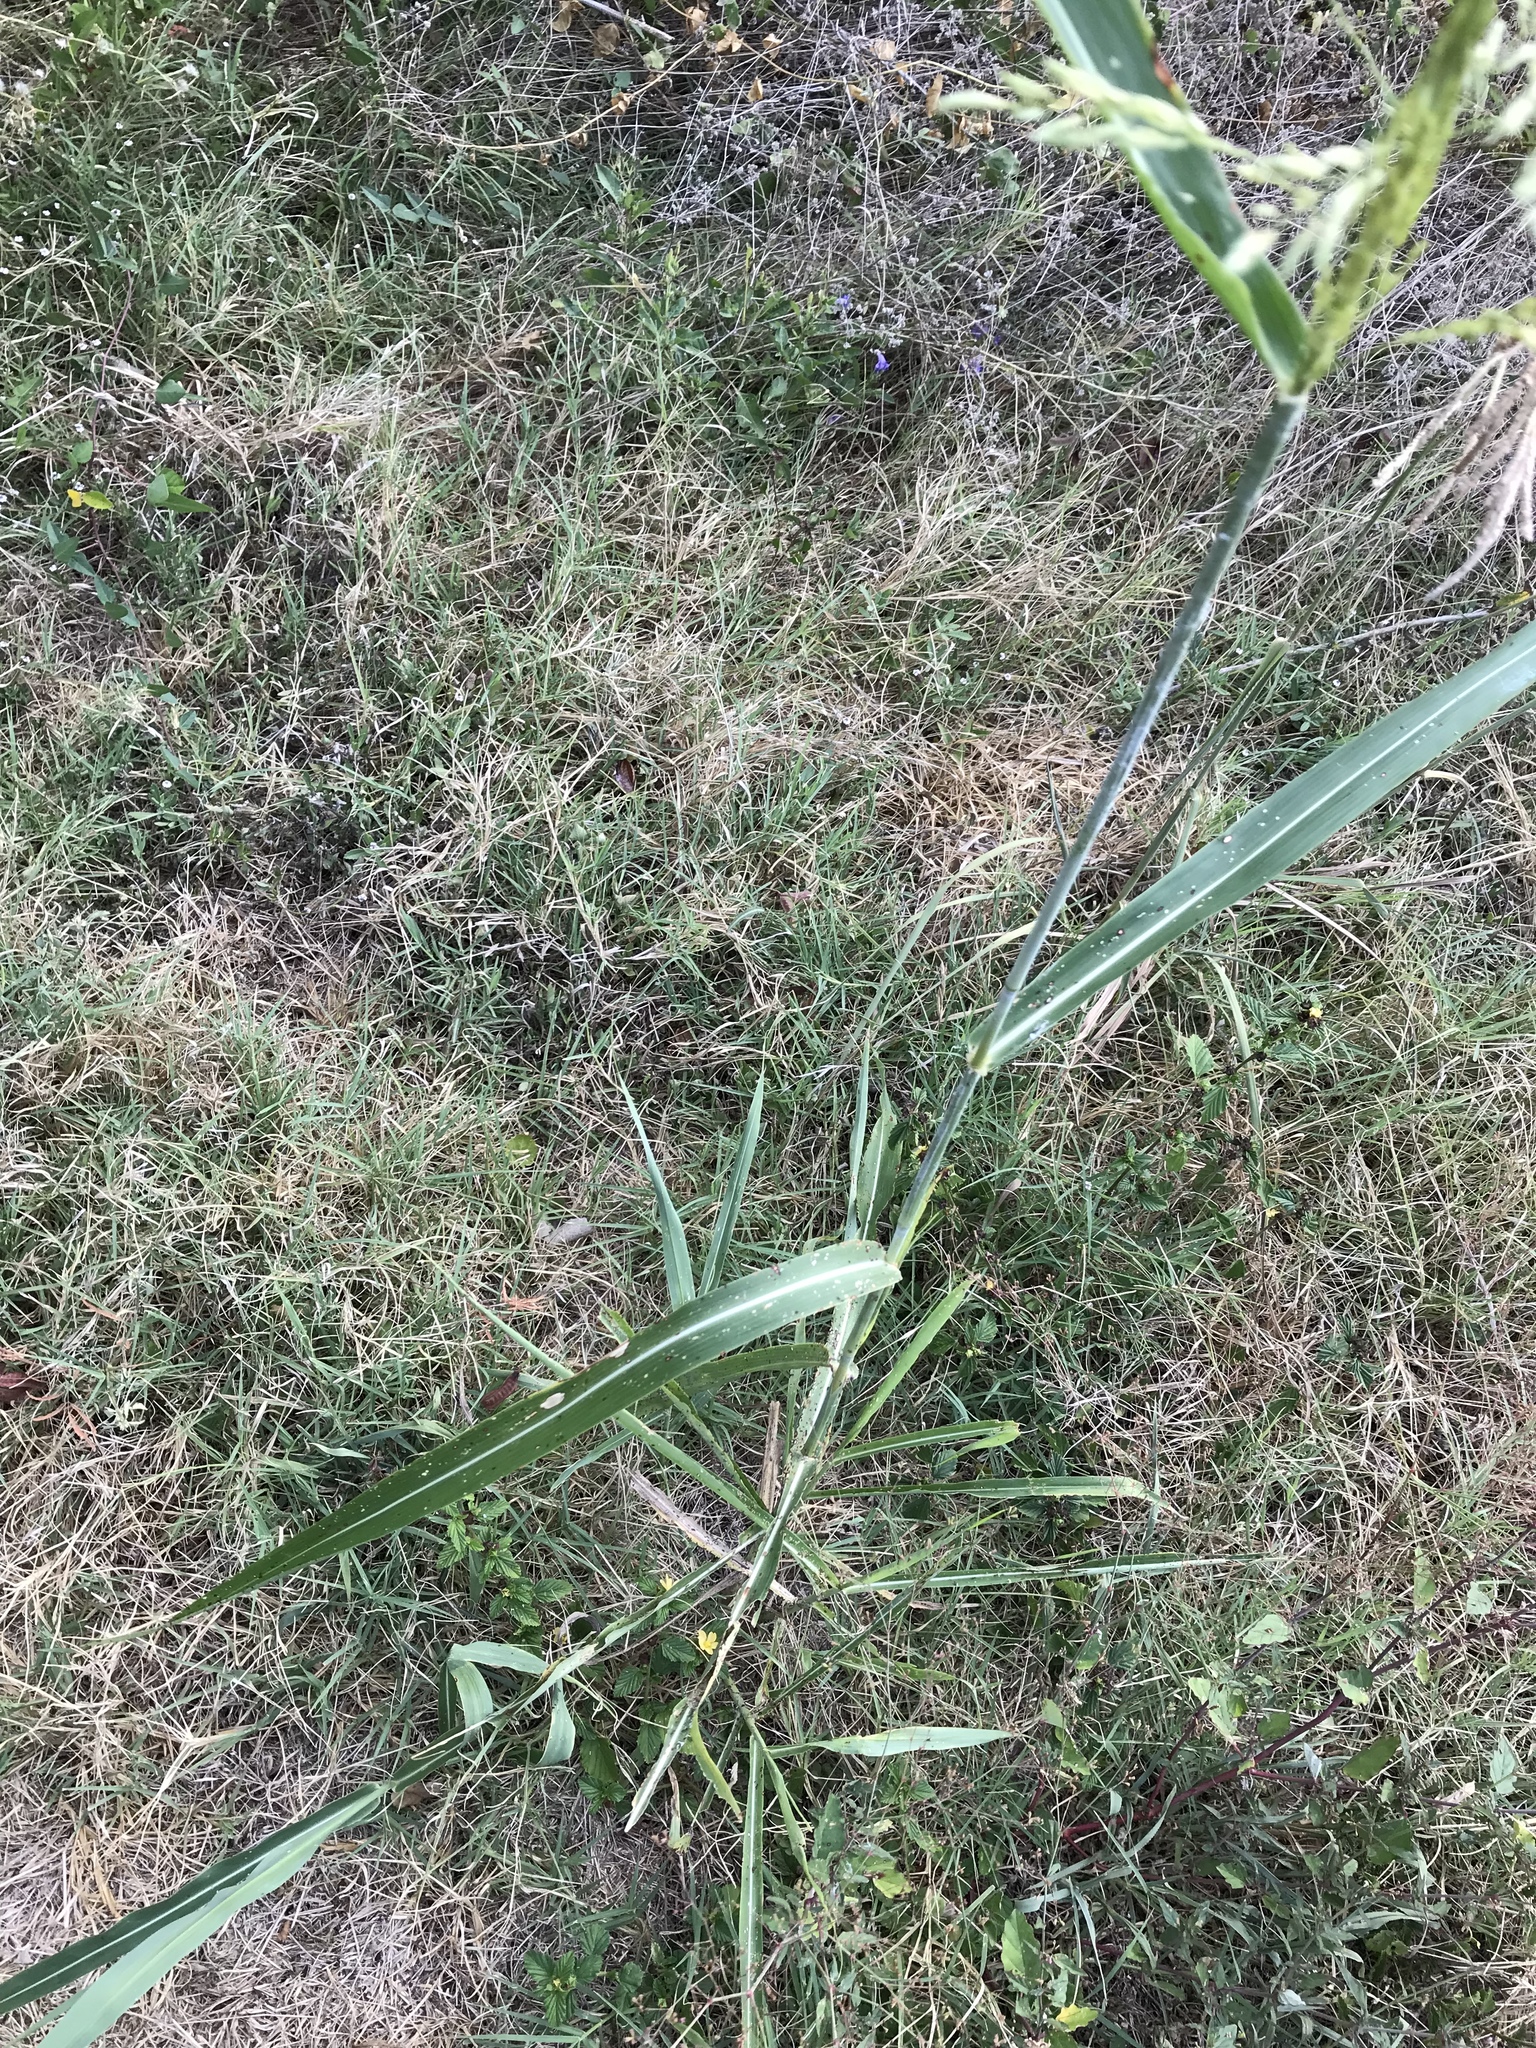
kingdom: Plantae
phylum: Tracheophyta
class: Liliopsida
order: Poales
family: Poaceae
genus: Sorghum
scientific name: Sorghum halepense
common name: Johnson-grass
